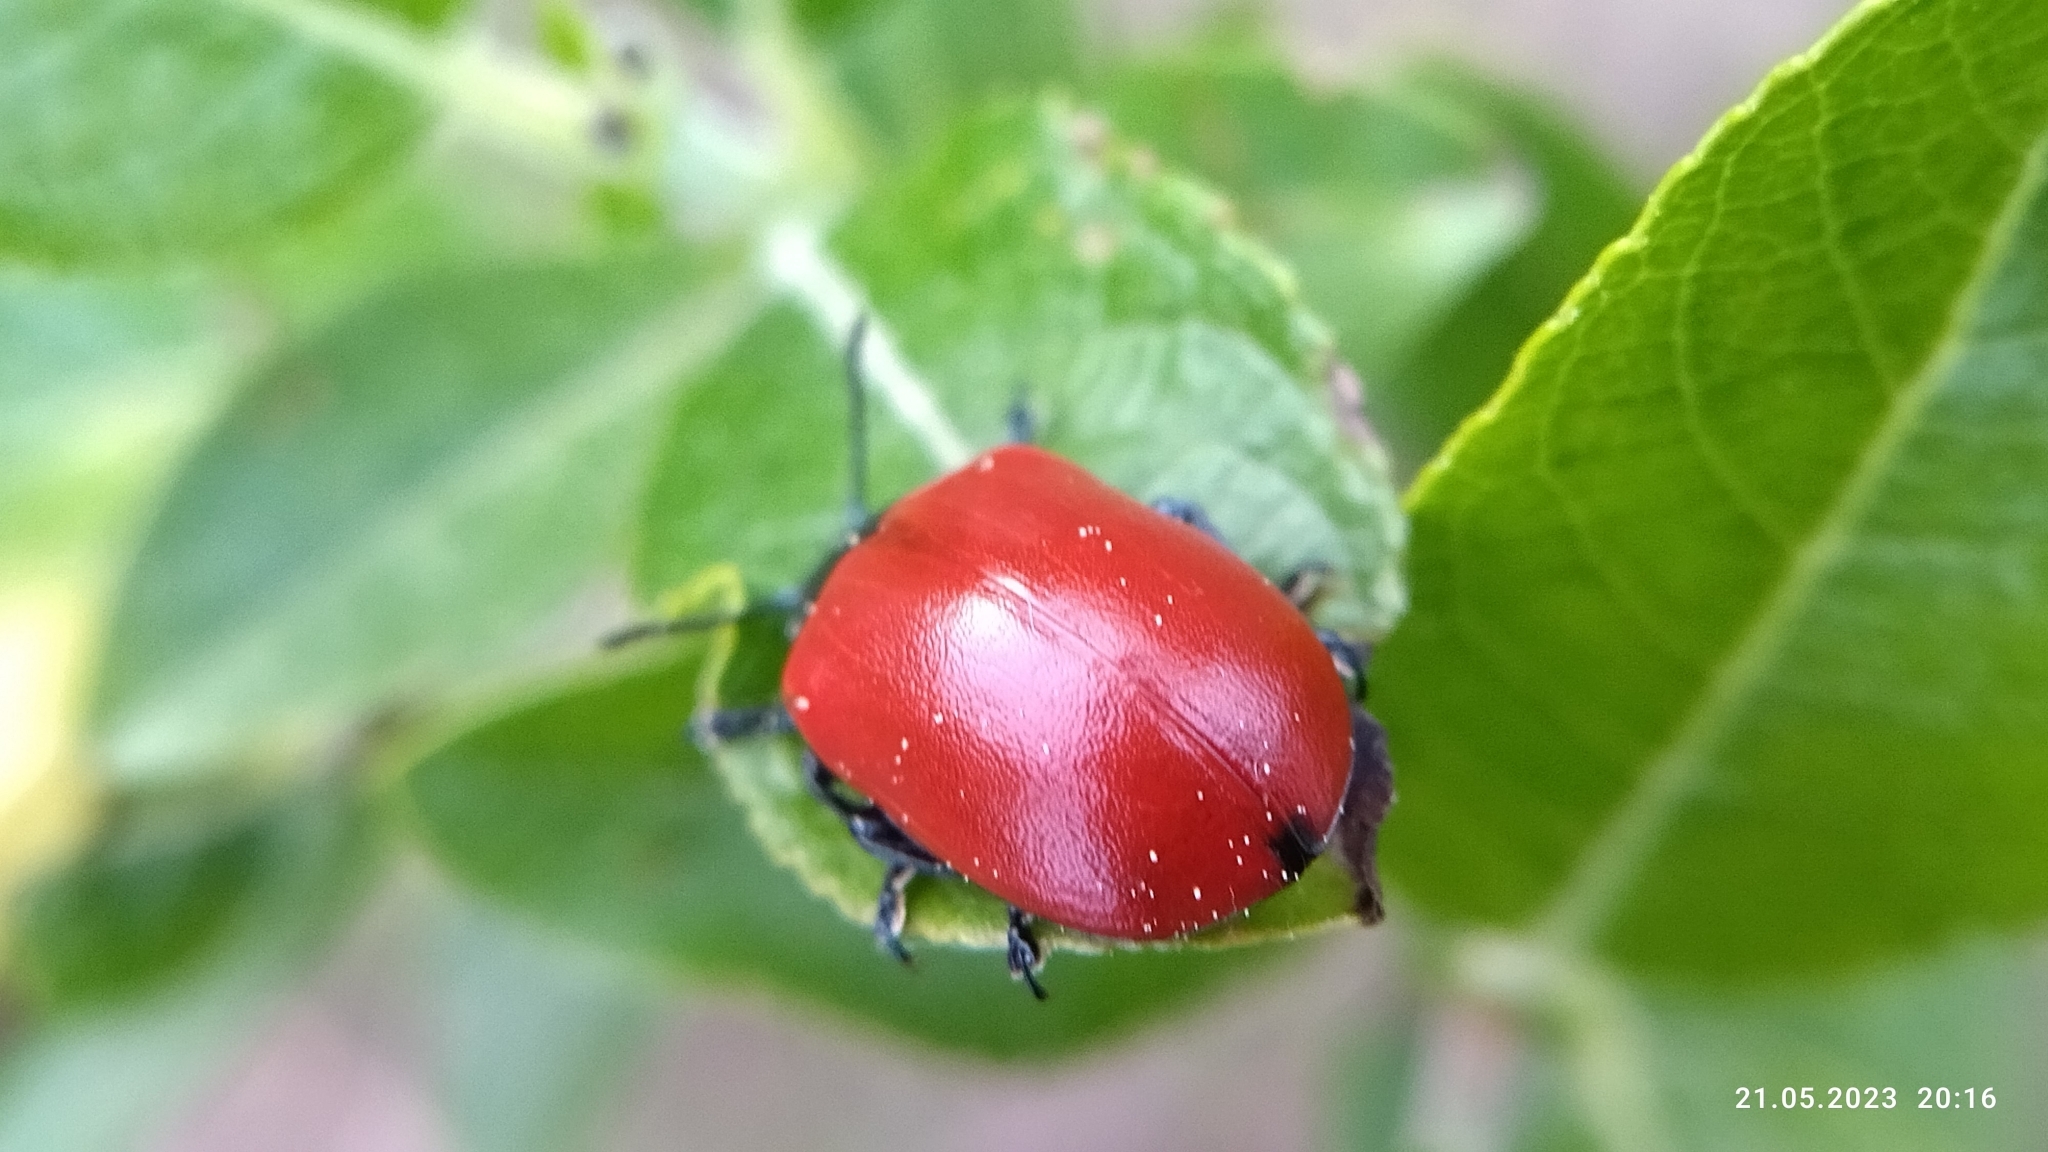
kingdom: Animalia
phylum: Arthropoda
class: Insecta
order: Coleoptera
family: Chrysomelidae
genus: Chrysomela
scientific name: Chrysomela populi
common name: Red poplar leaf beetle
